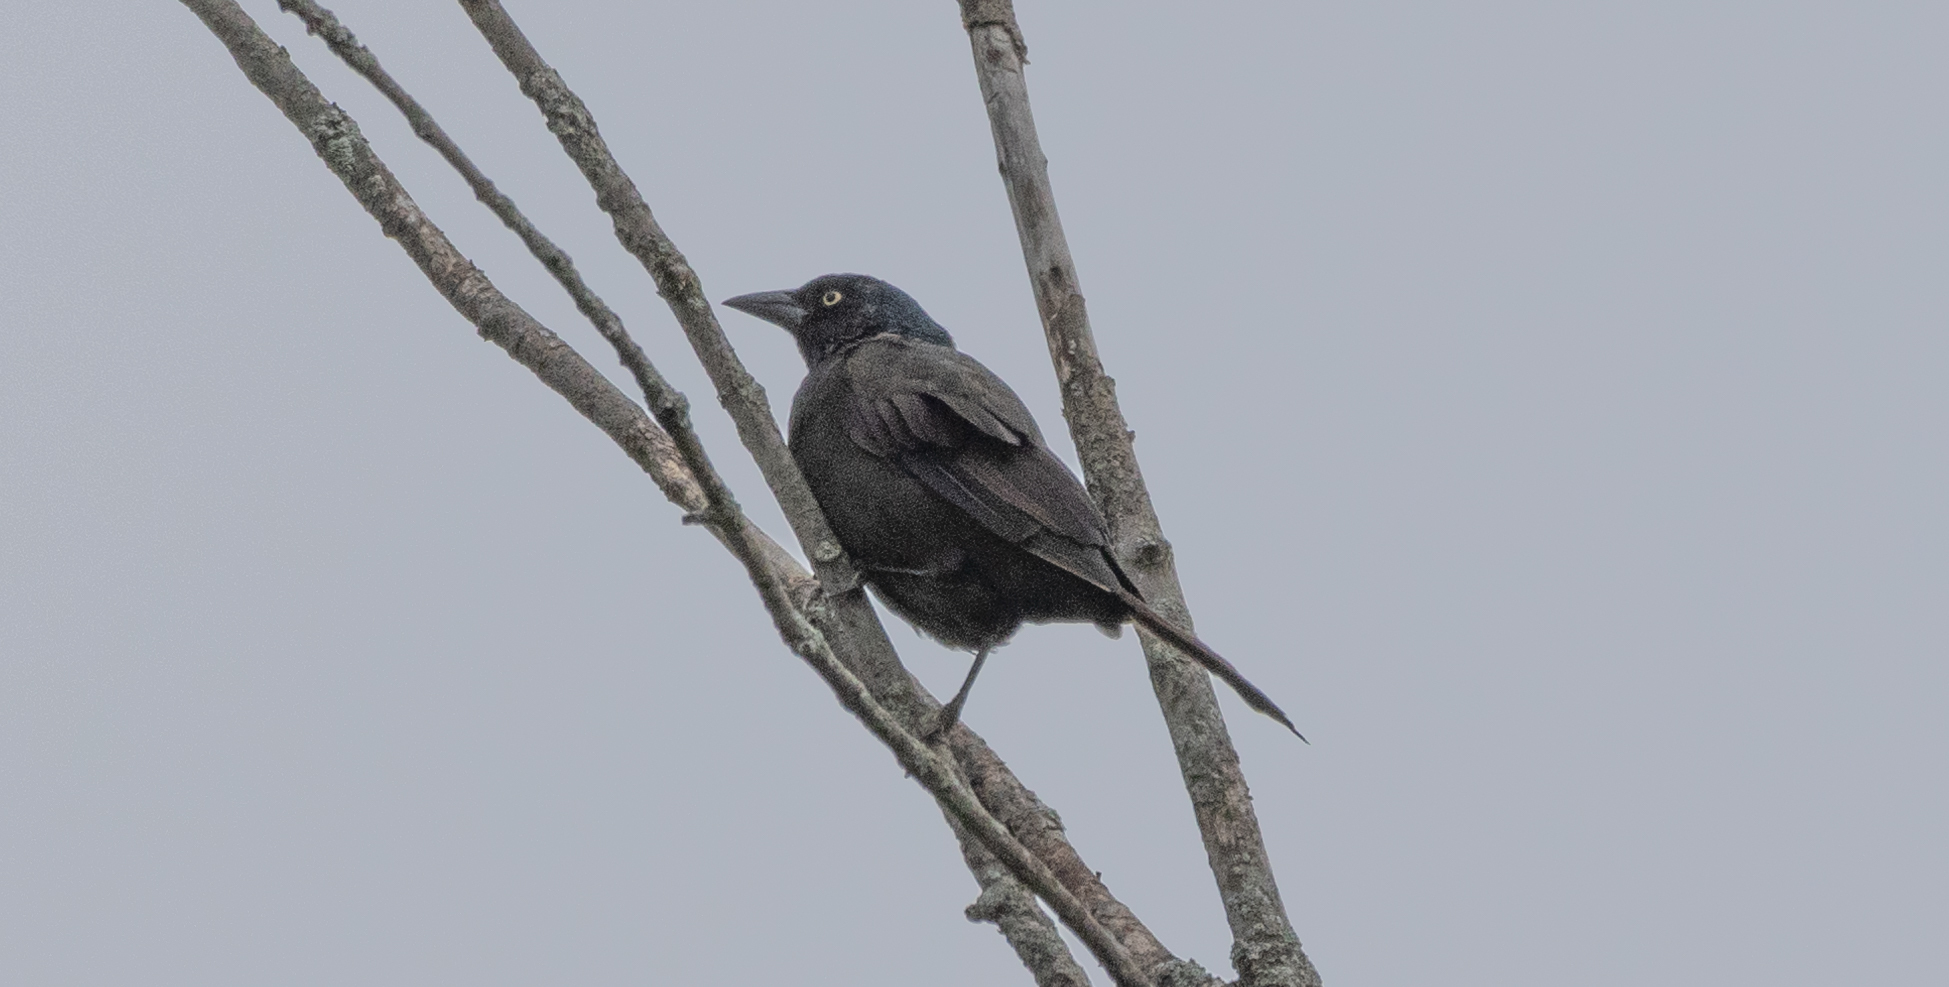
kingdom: Animalia
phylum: Chordata
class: Aves
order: Passeriformes
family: Icteridae
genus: Quiscalus
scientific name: Quiscalus quiscula
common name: Common grackle
